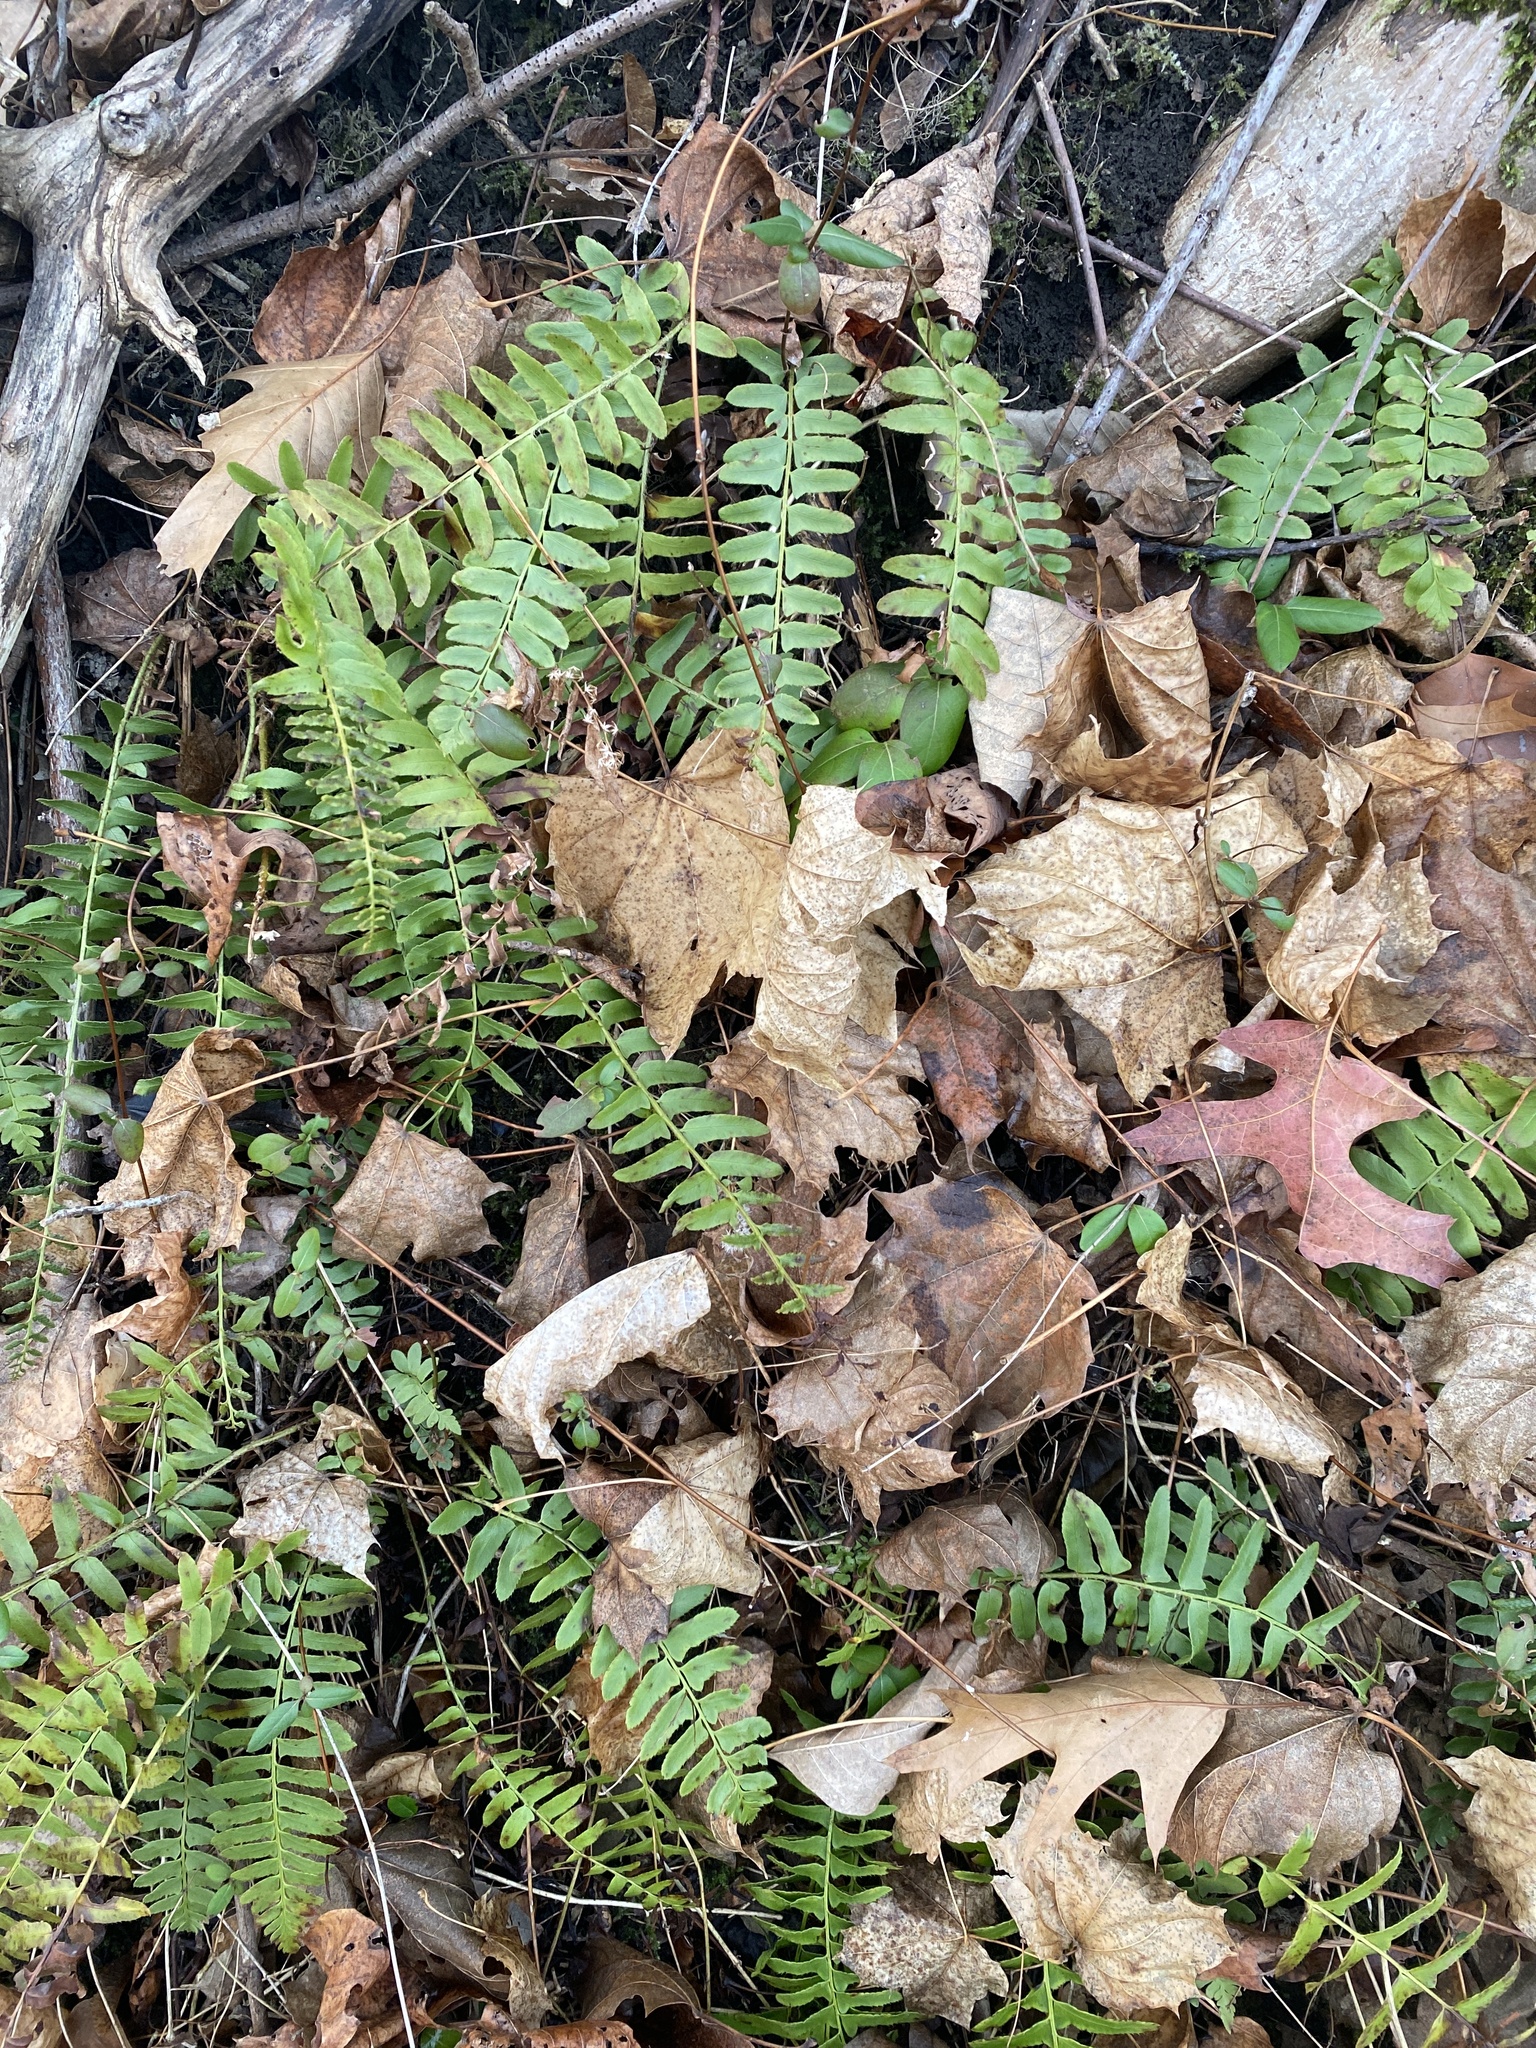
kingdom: Plantae
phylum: Tracheophyta
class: Polypodiopsida
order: Polypodiales
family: Dryopteridaceae
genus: Polystichum
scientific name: Polystichum acrostichoides
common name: Christmas fern
